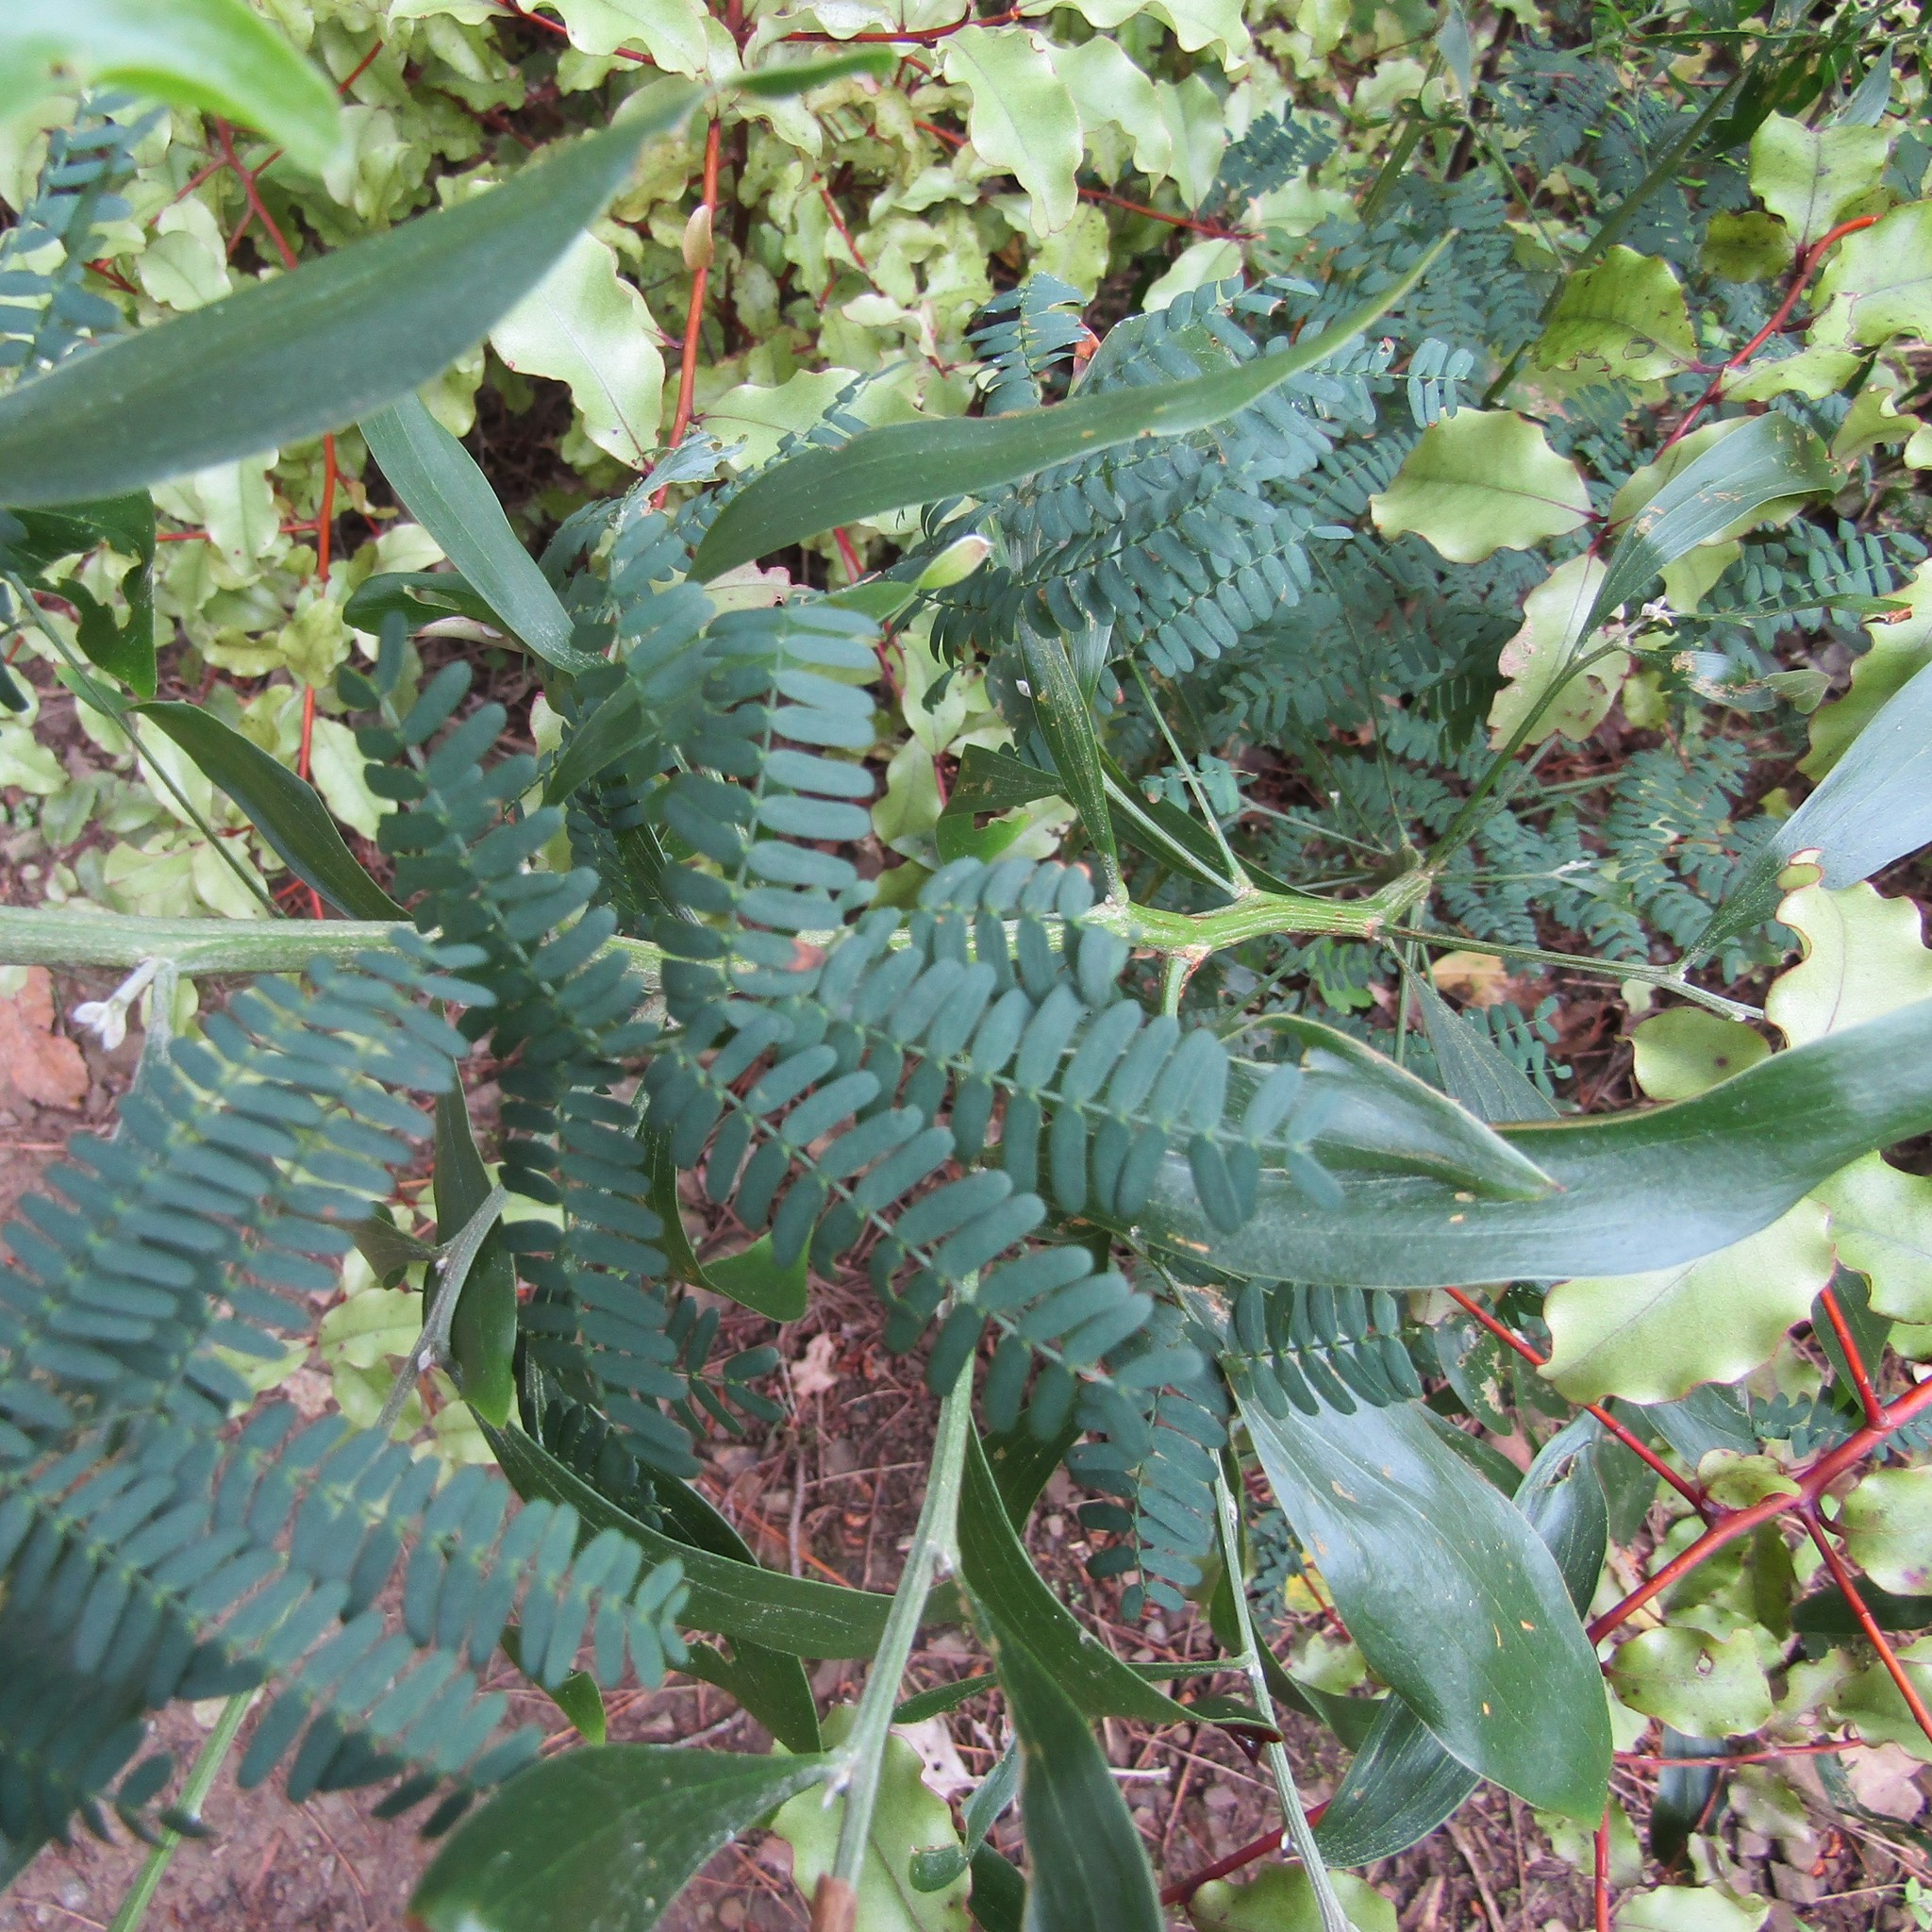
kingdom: Plantae
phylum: Tracheophyta
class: Magnoliopsida
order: Fabales
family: Fabaceae
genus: Acacia
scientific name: Acacia melanoxylon
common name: Blackwood
